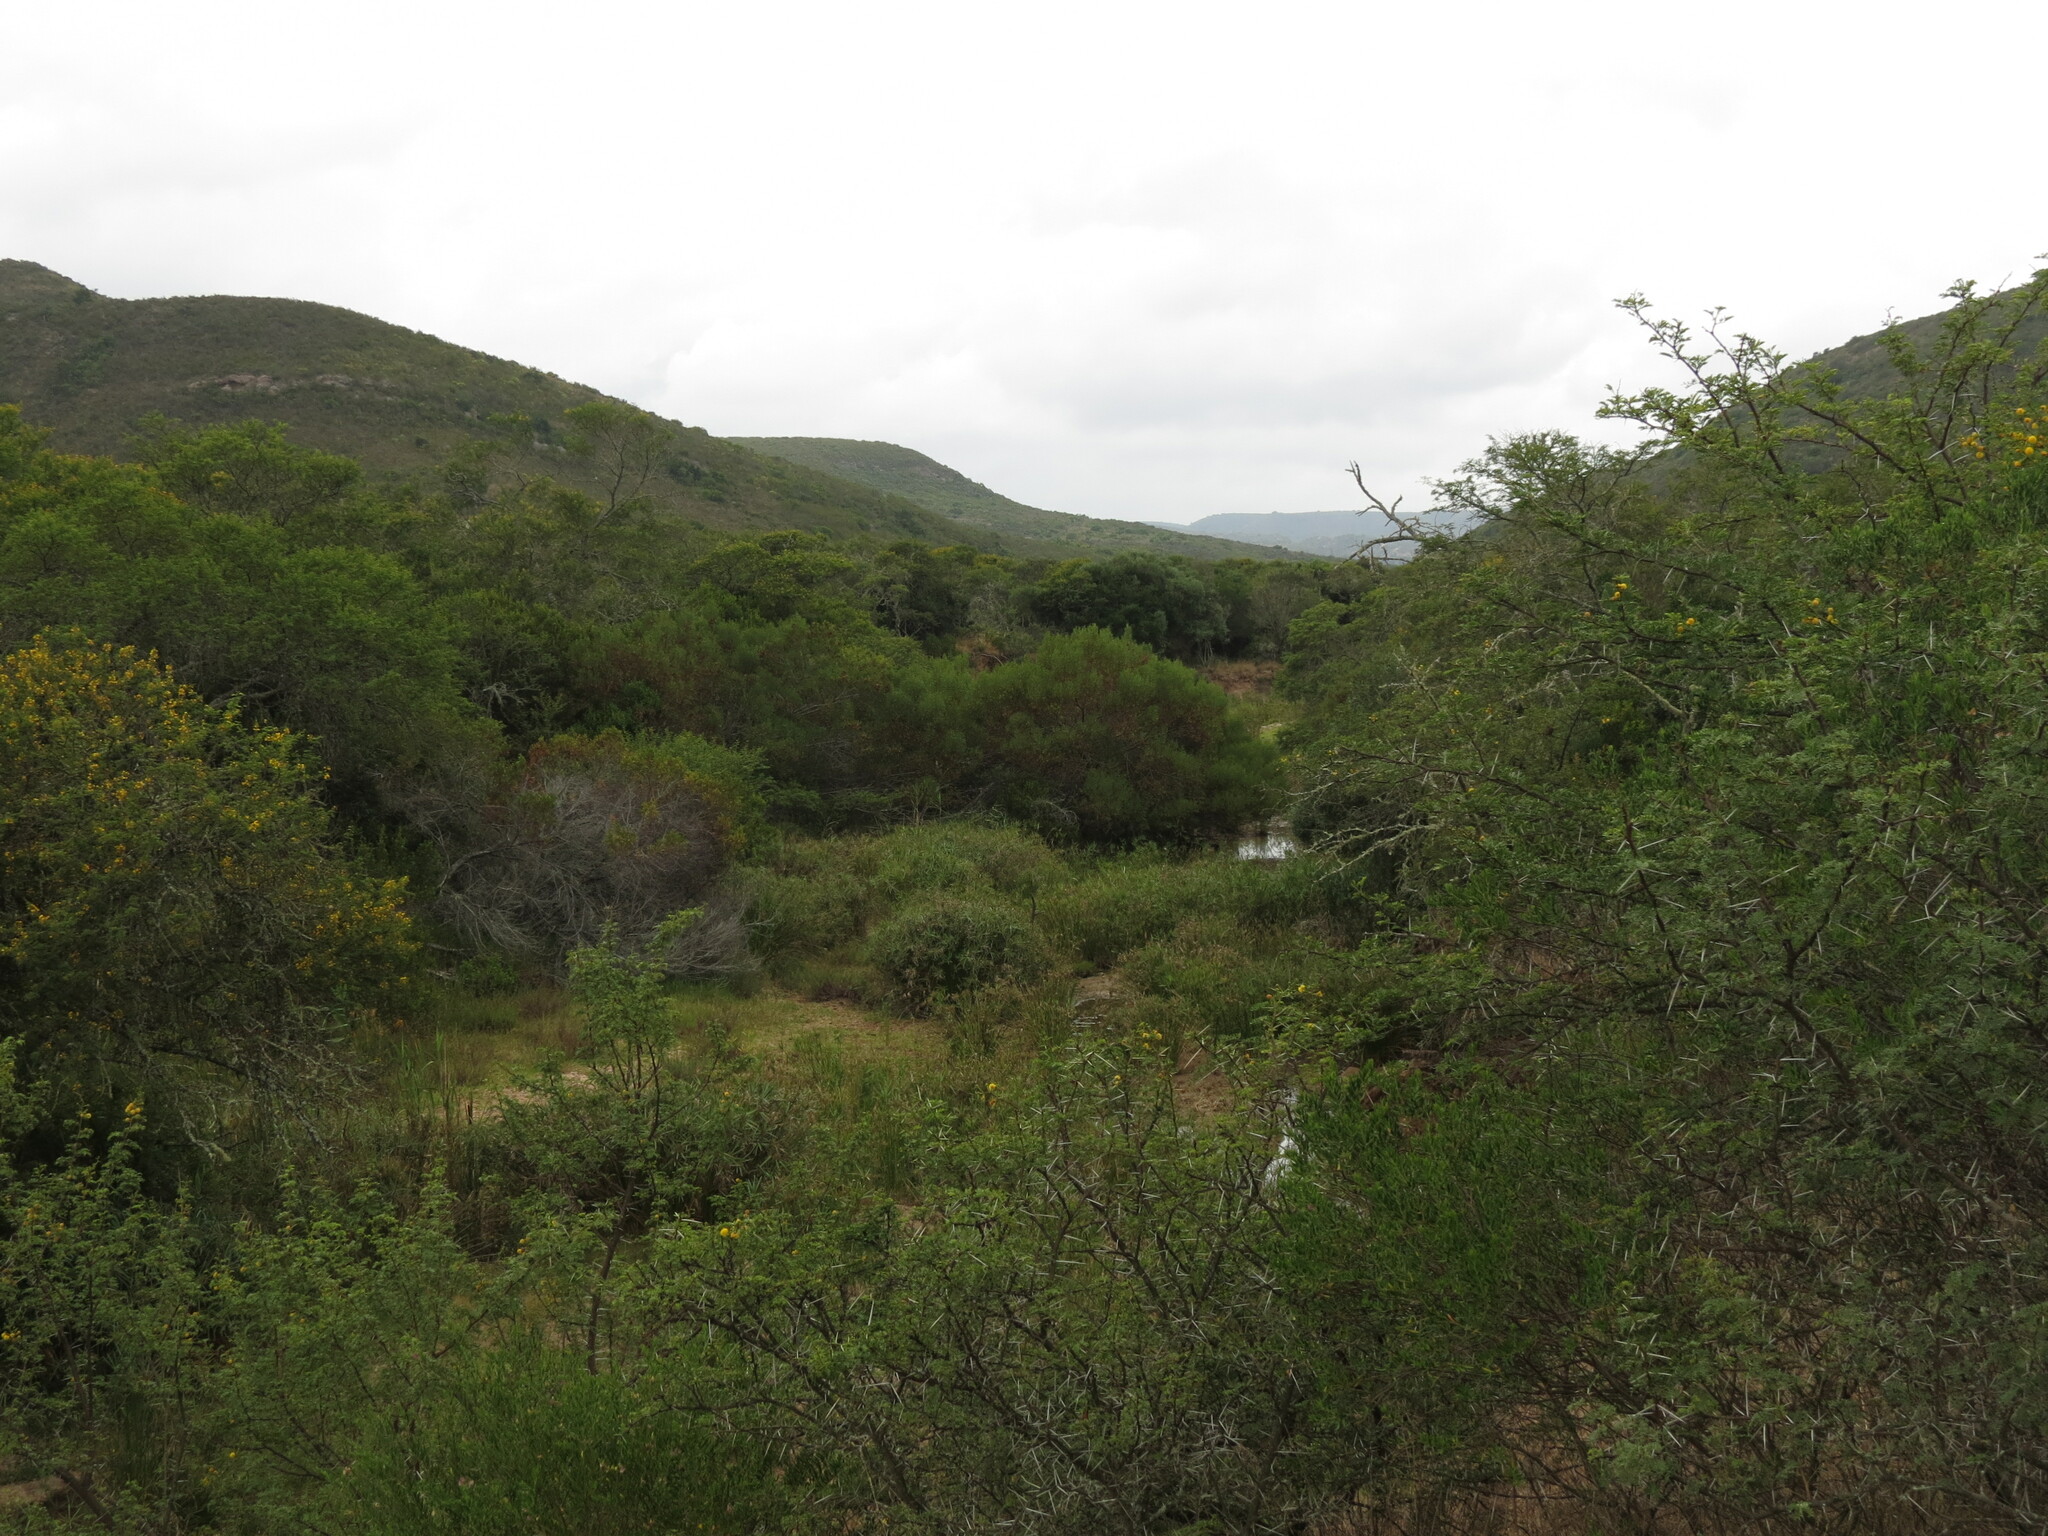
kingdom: Plantae
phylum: Tracheophyta
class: Magnoliopsida
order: Fabales
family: Fabaceae
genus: Vachellia
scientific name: Vachellia karroo
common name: Sweet thorn
